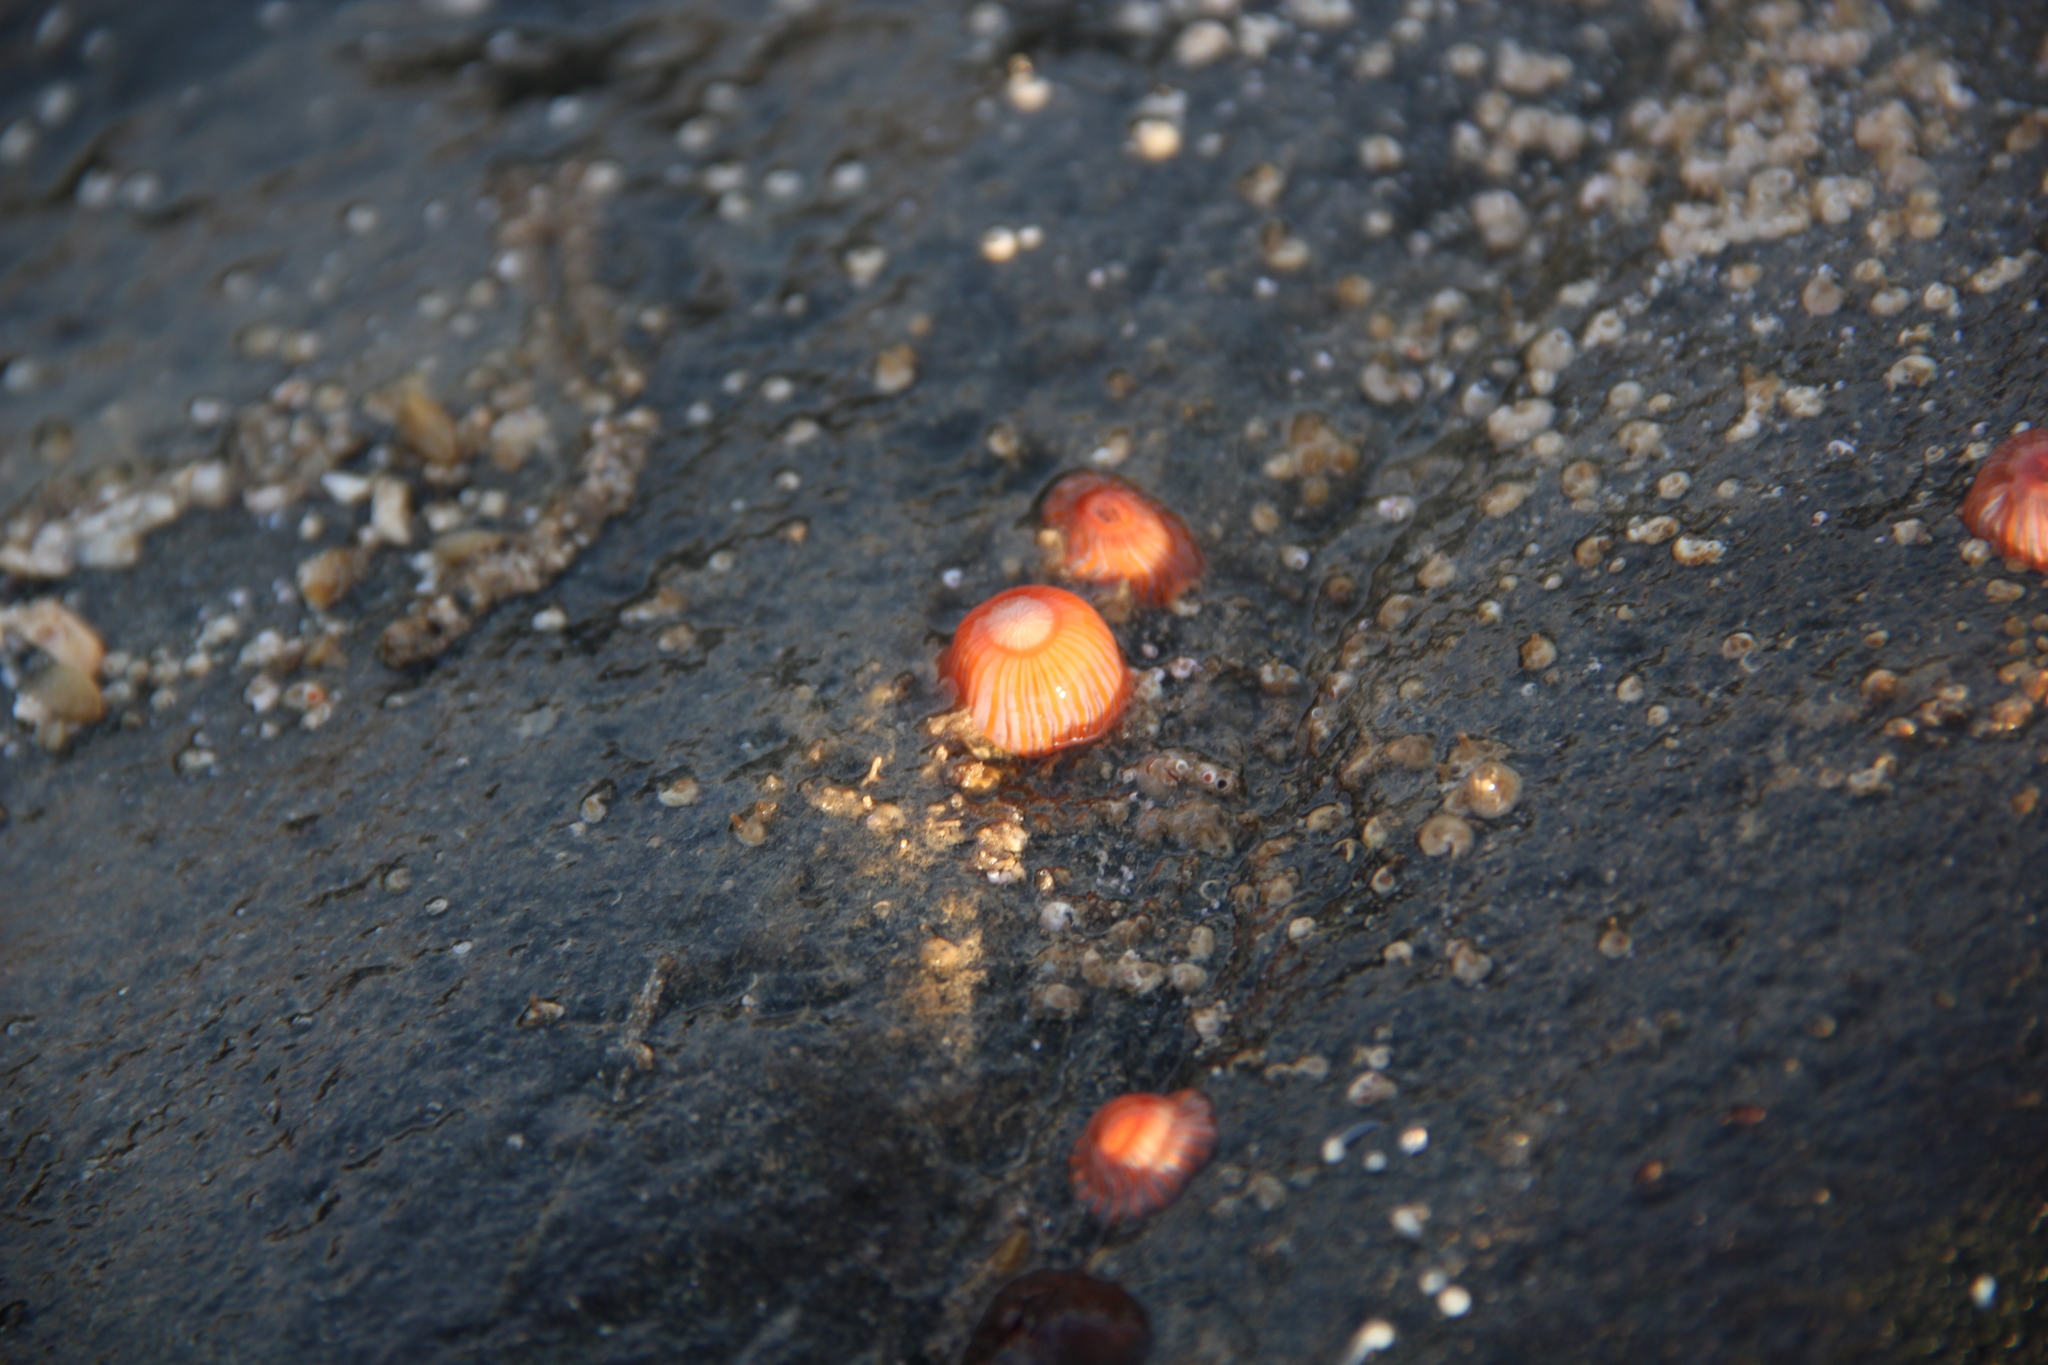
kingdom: Animalia
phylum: Cnidaria
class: Anthozoa
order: Actiniaria
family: Sagartiidae
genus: Anthothoe
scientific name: Anthothoe chilensis
